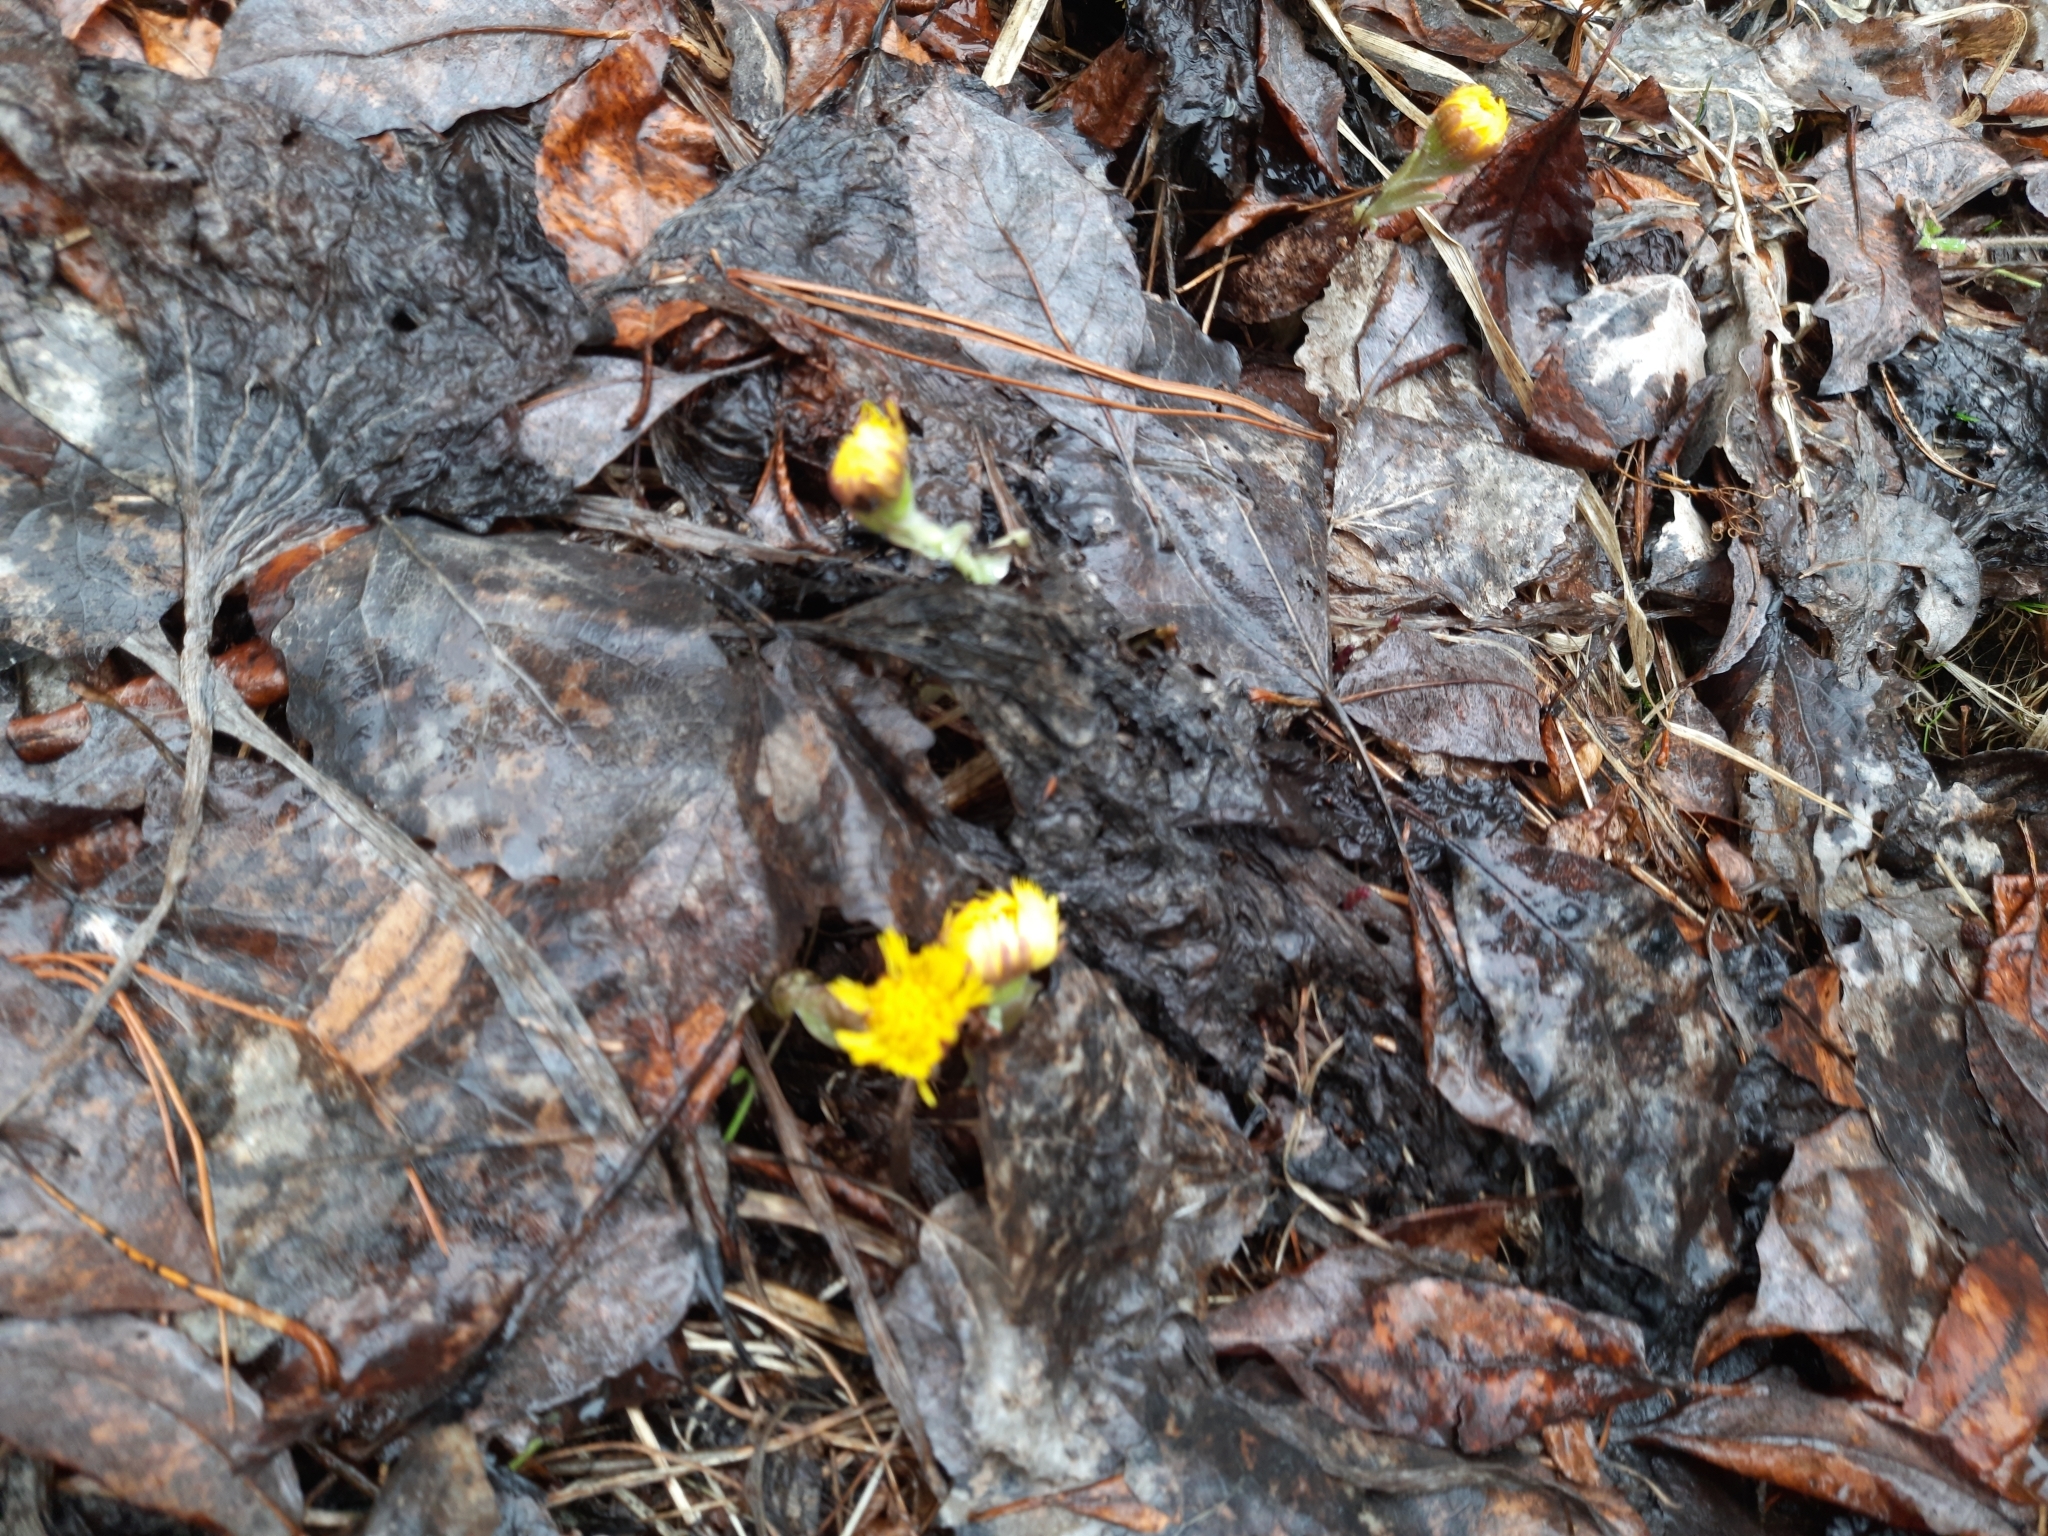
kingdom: Plantae
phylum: Tracheophyta
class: Magnoliopsida
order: Asterales
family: Asteraceae
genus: Tussilago
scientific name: Tussilago farfara
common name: Coltsfoot
